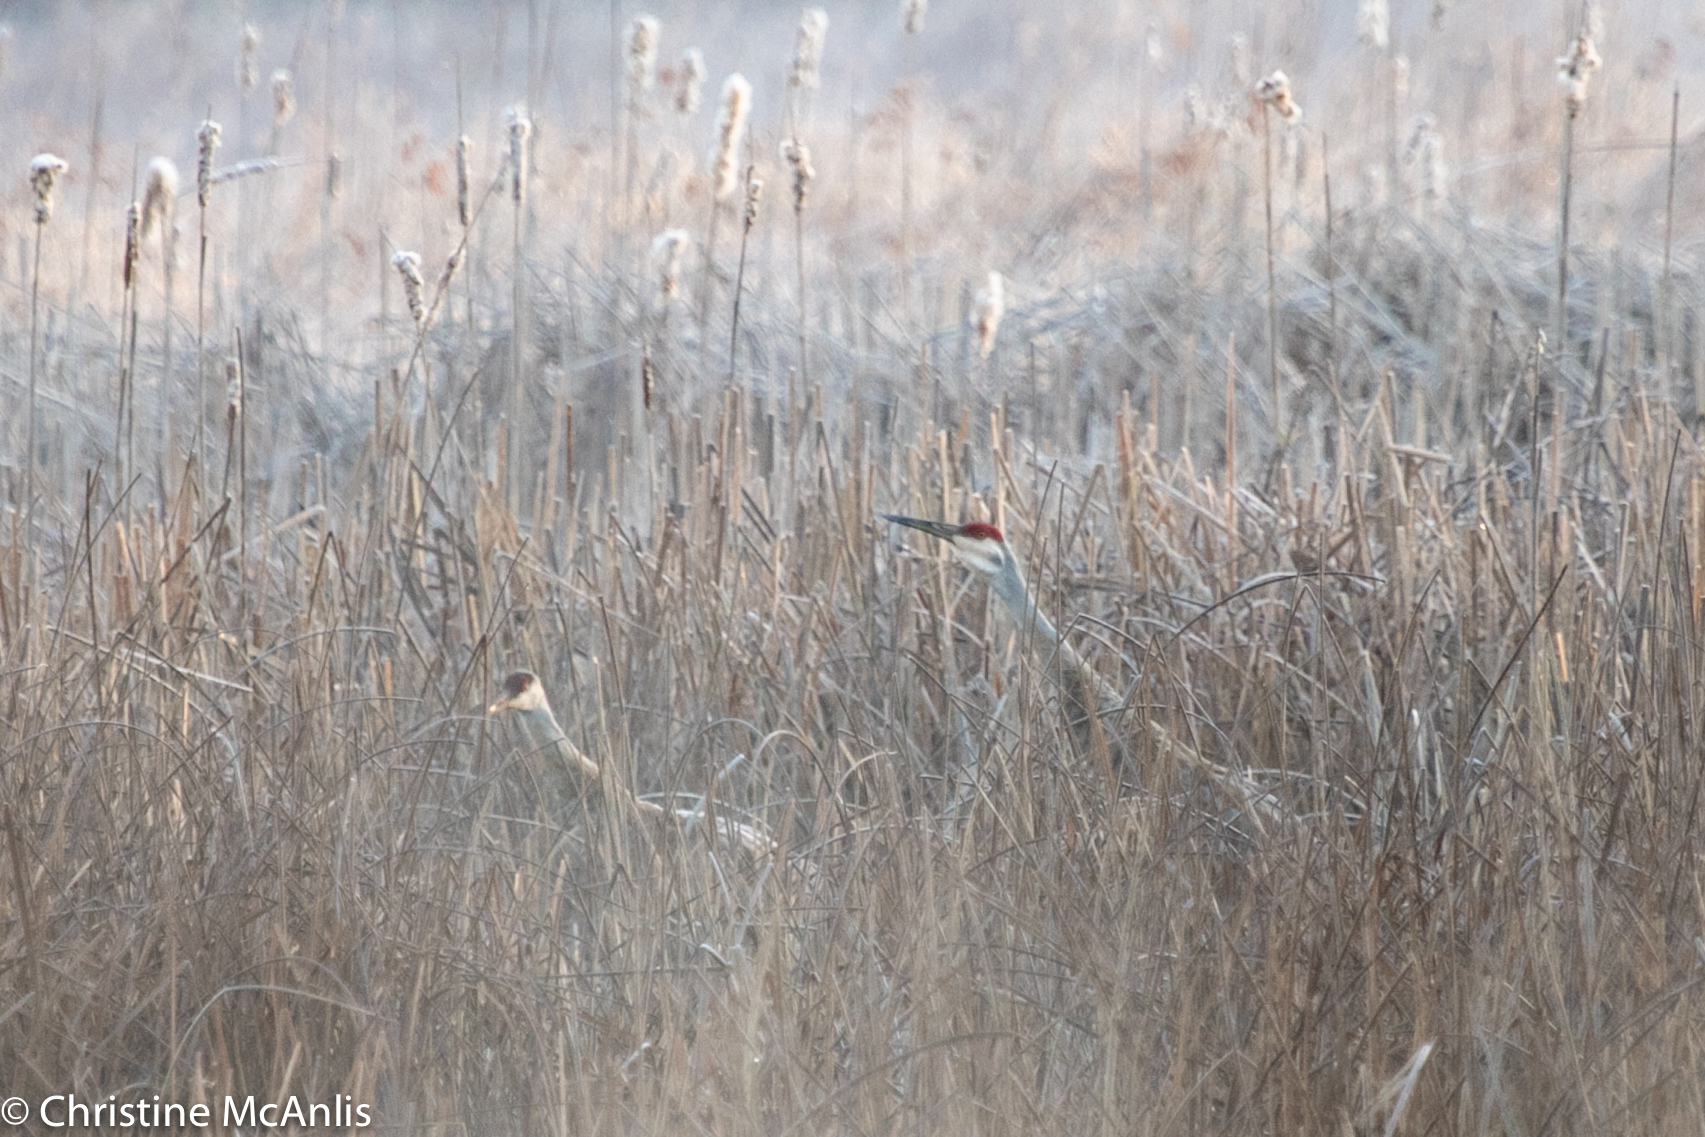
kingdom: Animalia
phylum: Chordata
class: Aves
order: Gruiformes
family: Gruidae
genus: Grus
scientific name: Grus canadensis
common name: Sandhill crane
